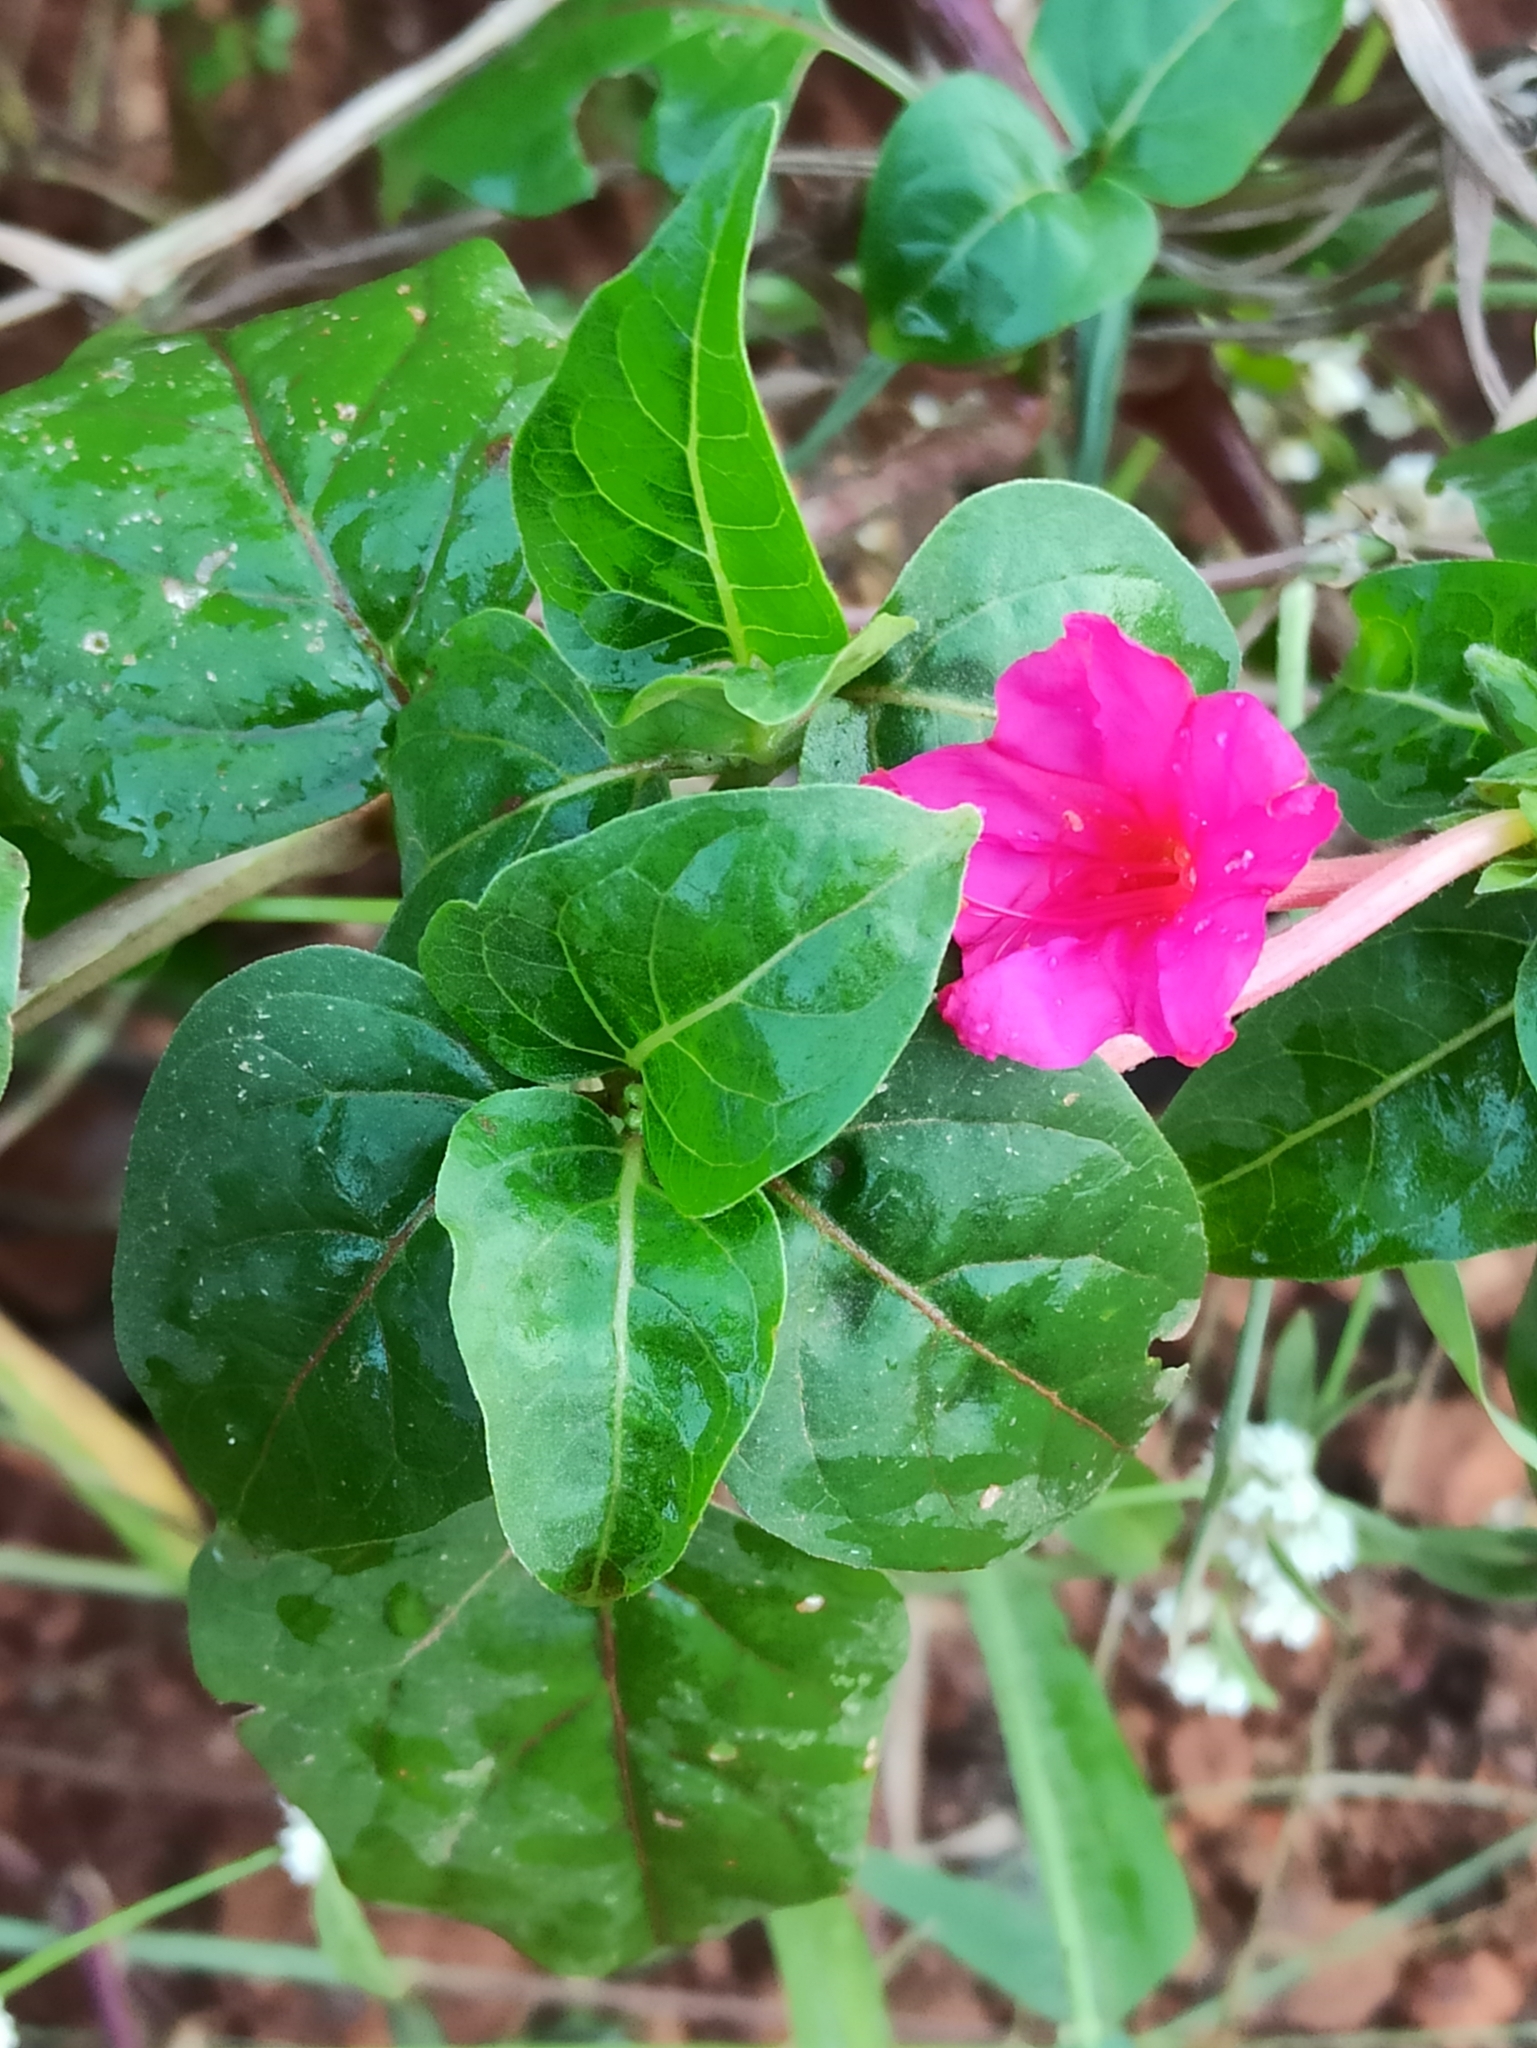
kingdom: Plantae
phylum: Tracheophyta
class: Magnoliopsida
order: Caryophyllales
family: Nyctaginaceae
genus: Mirabilis
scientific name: Mirabilis jalapa
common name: Marvel-of-peru
